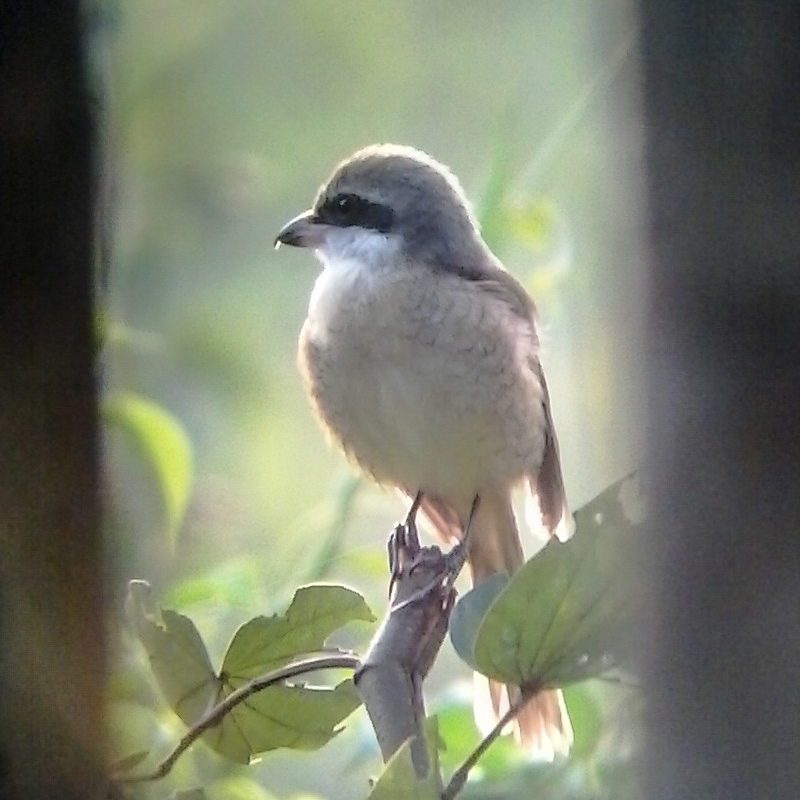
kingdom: Animalia
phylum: Chordata
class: Aves
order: Passeriformes
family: Laniidae
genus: Lanius
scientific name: Lanius cristatus
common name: Brown shrike
